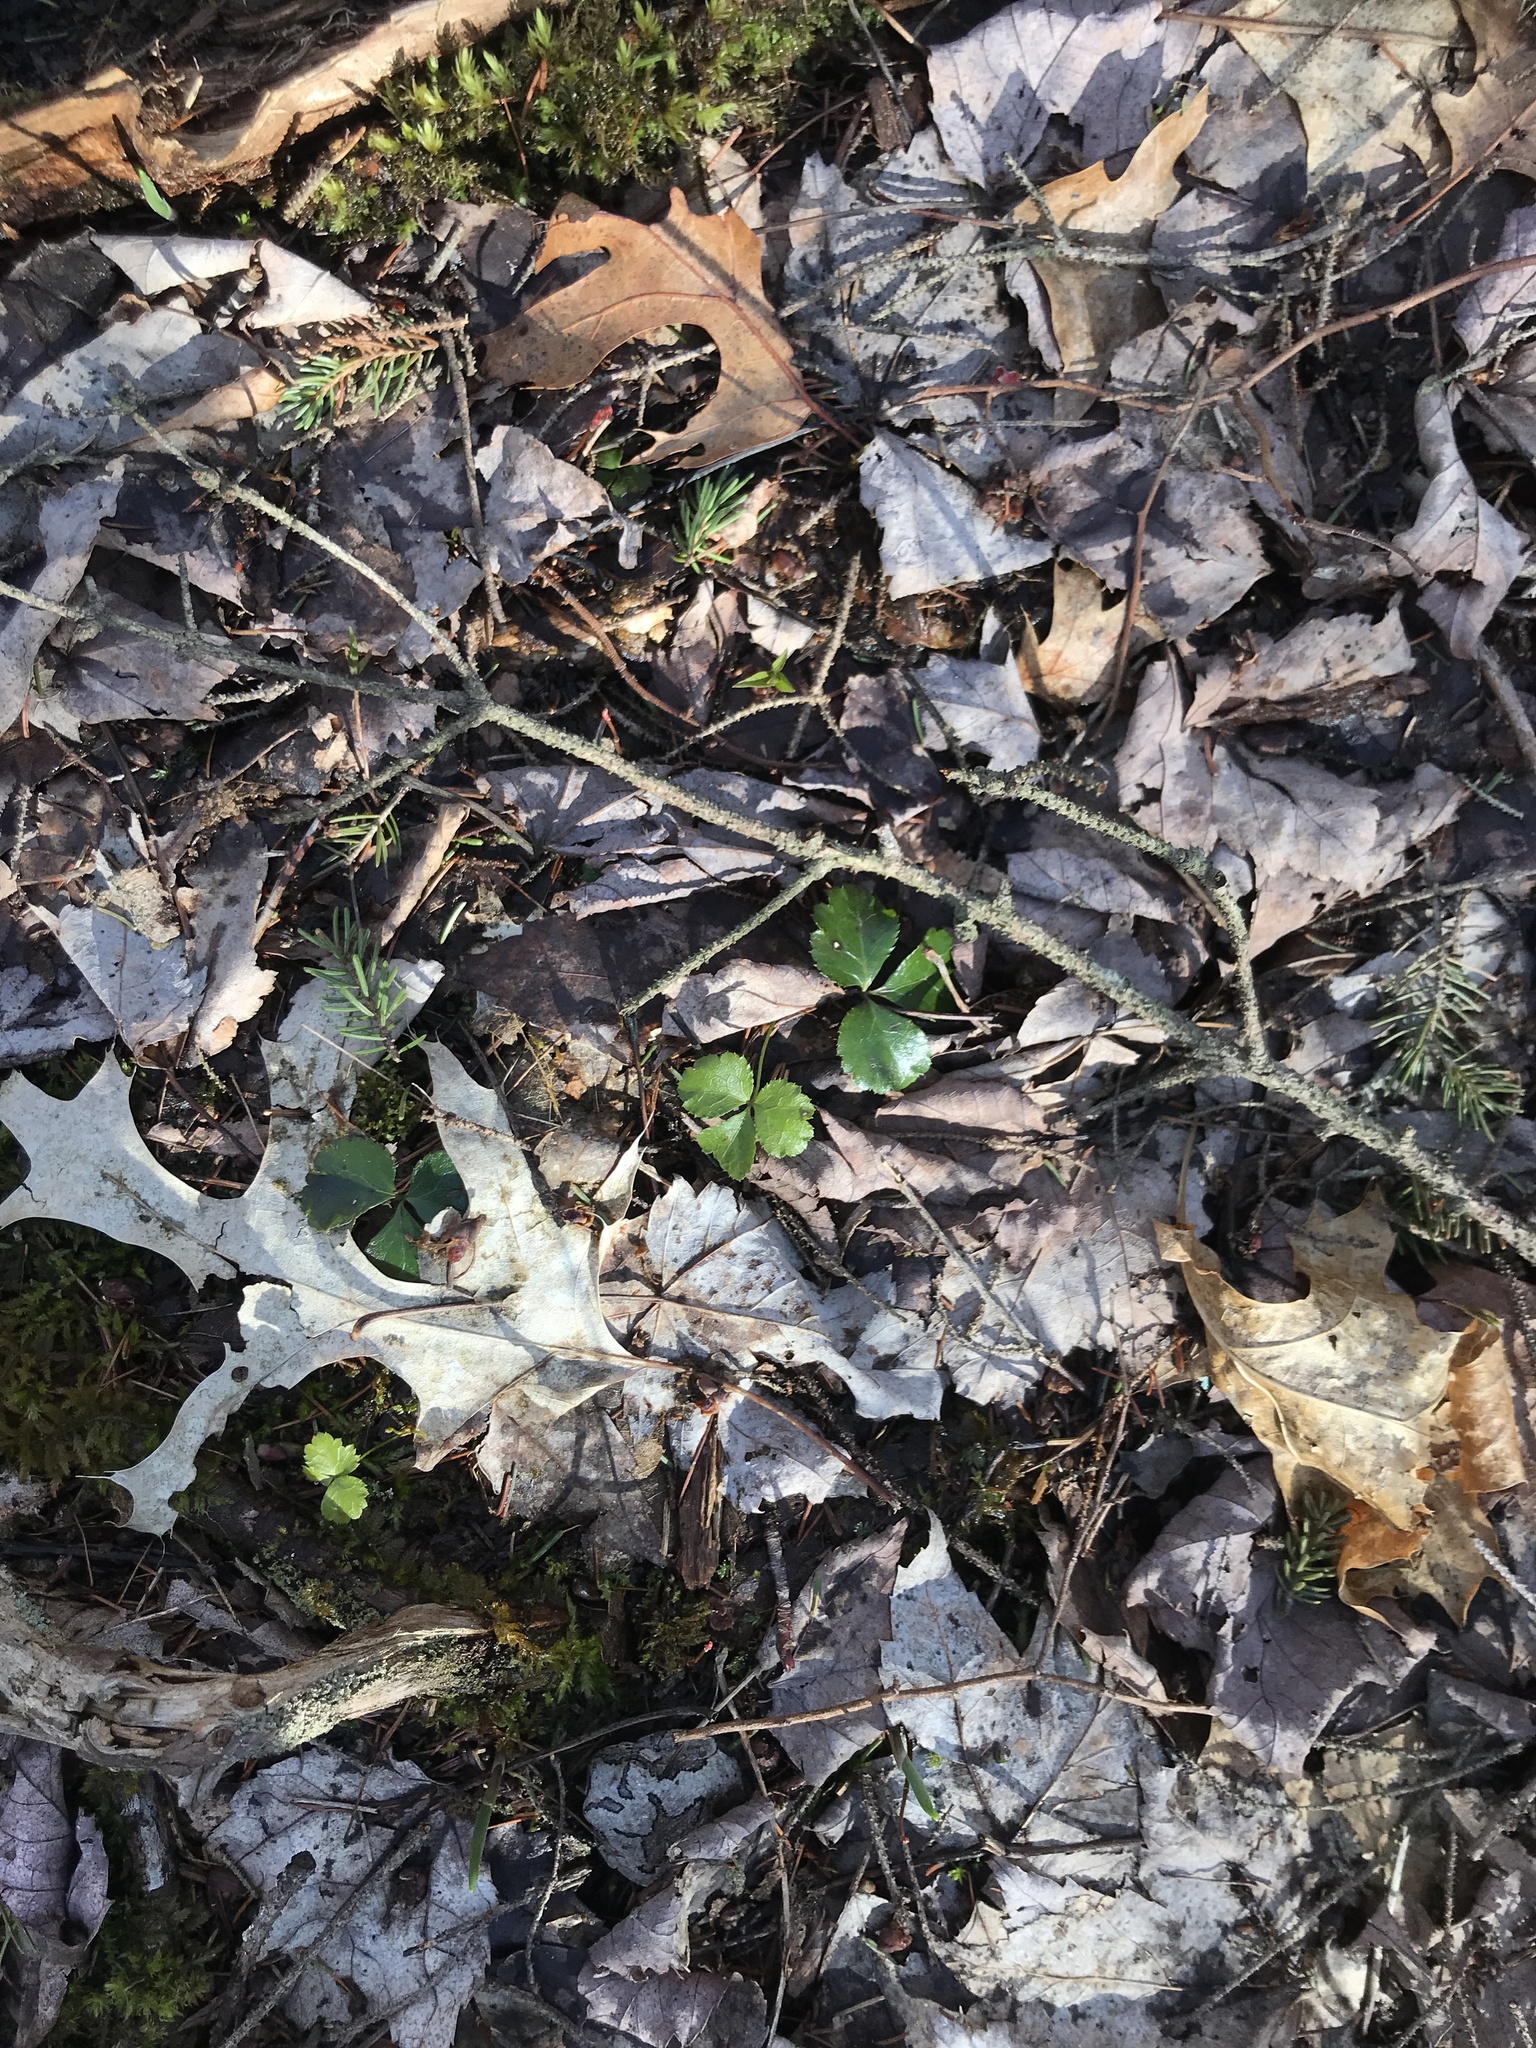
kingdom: Plantae
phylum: Tracheophyta
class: Magnoliopsida
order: Ranunculales
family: Ranunculaceae
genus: Coptis
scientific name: Coptis trifolia
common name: Canker-root
